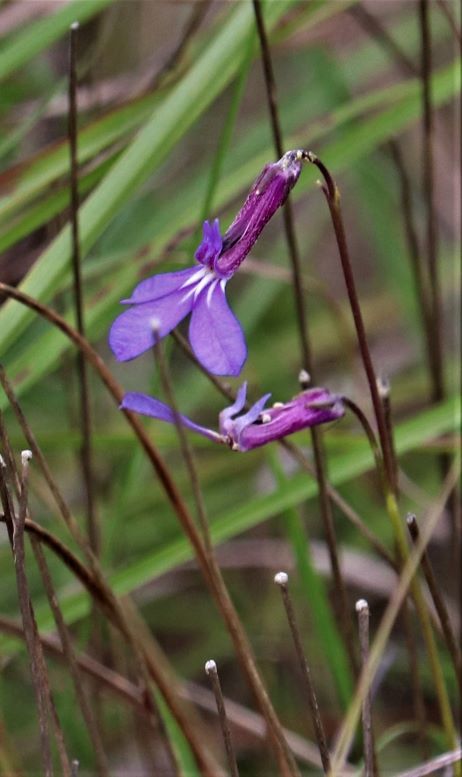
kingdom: Plantae
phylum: Tracheophyta
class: Magnoliopsida
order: Asterales
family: Campanulaceae
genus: Lobelia
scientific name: Lobelia tomentosa
